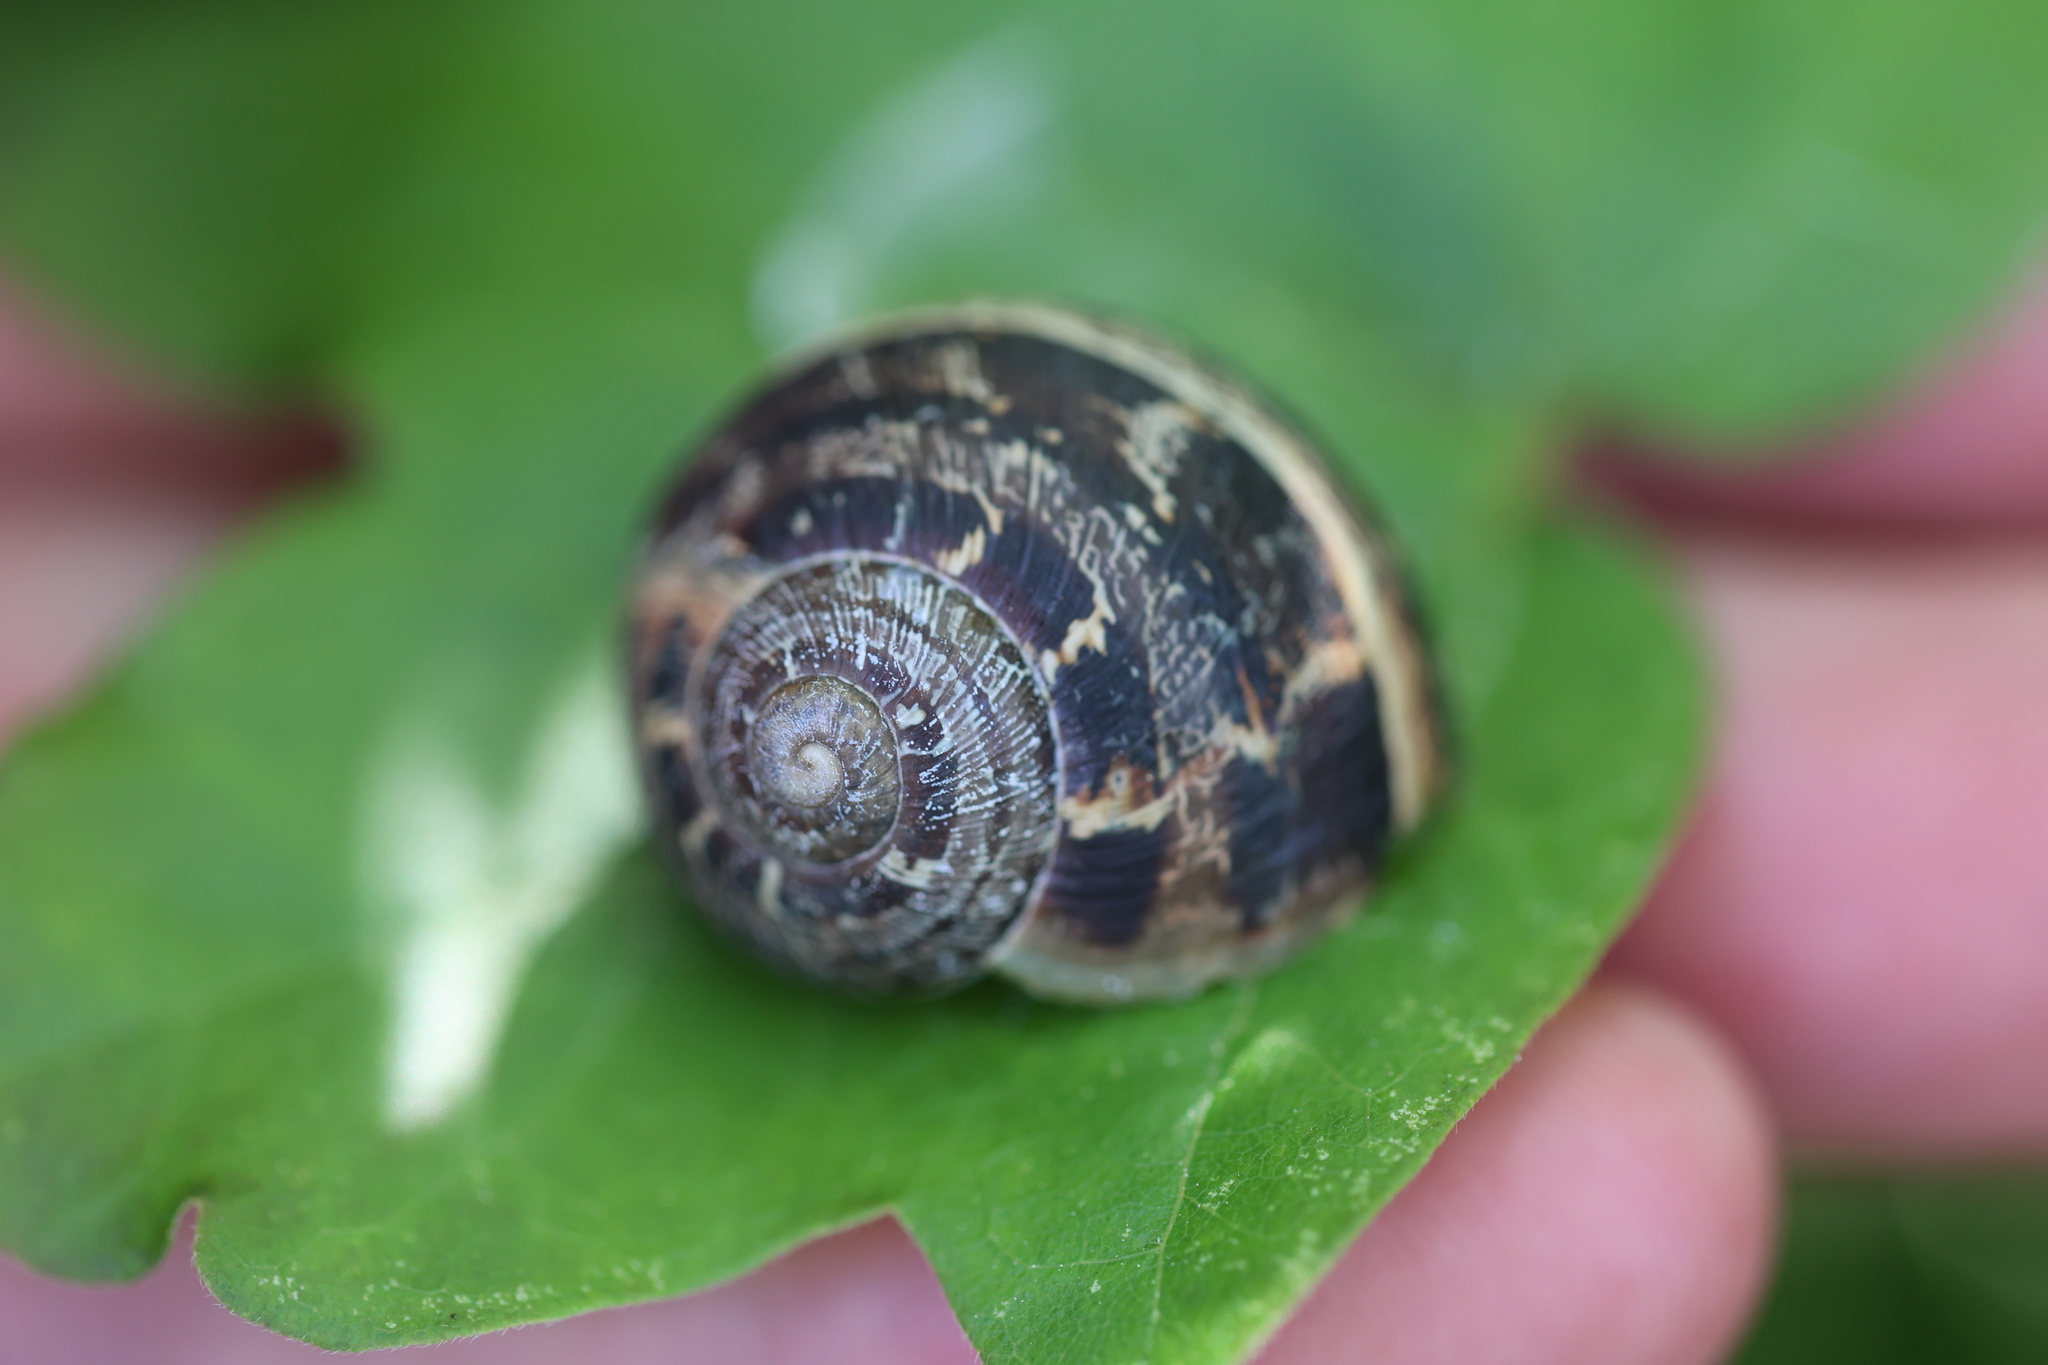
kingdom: Animalia
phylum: Mollusca
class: Gastropoda
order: Stylommatophora
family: Helicidae
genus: Cornu
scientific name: Cornu aspersum
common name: Brown garden snail
